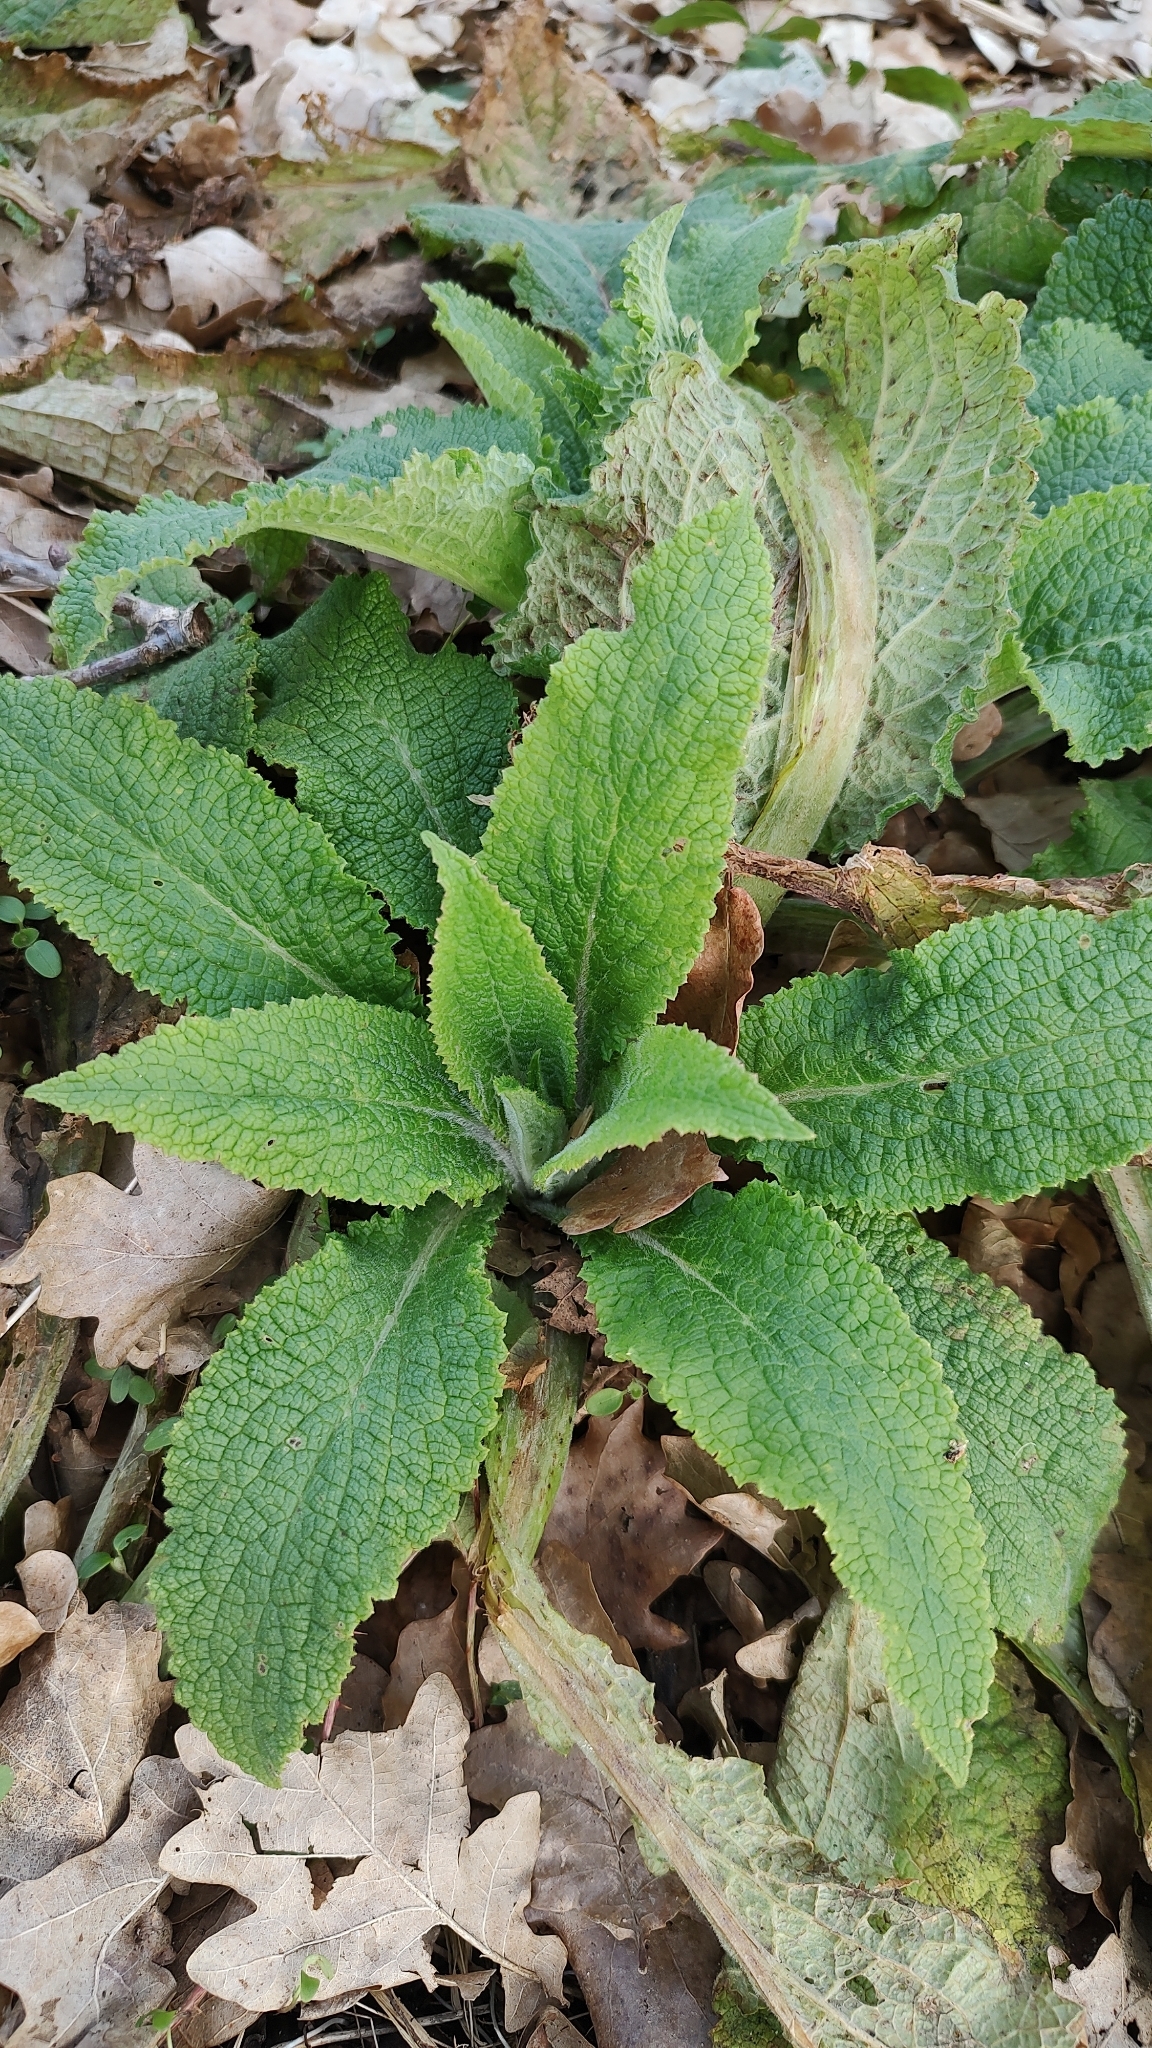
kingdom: Plantae
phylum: Tracheophyta
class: Magnoliopsida
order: Lamiales
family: Plantaginaceae
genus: Digitalis
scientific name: Digitalis purpurea
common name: Foxglove
